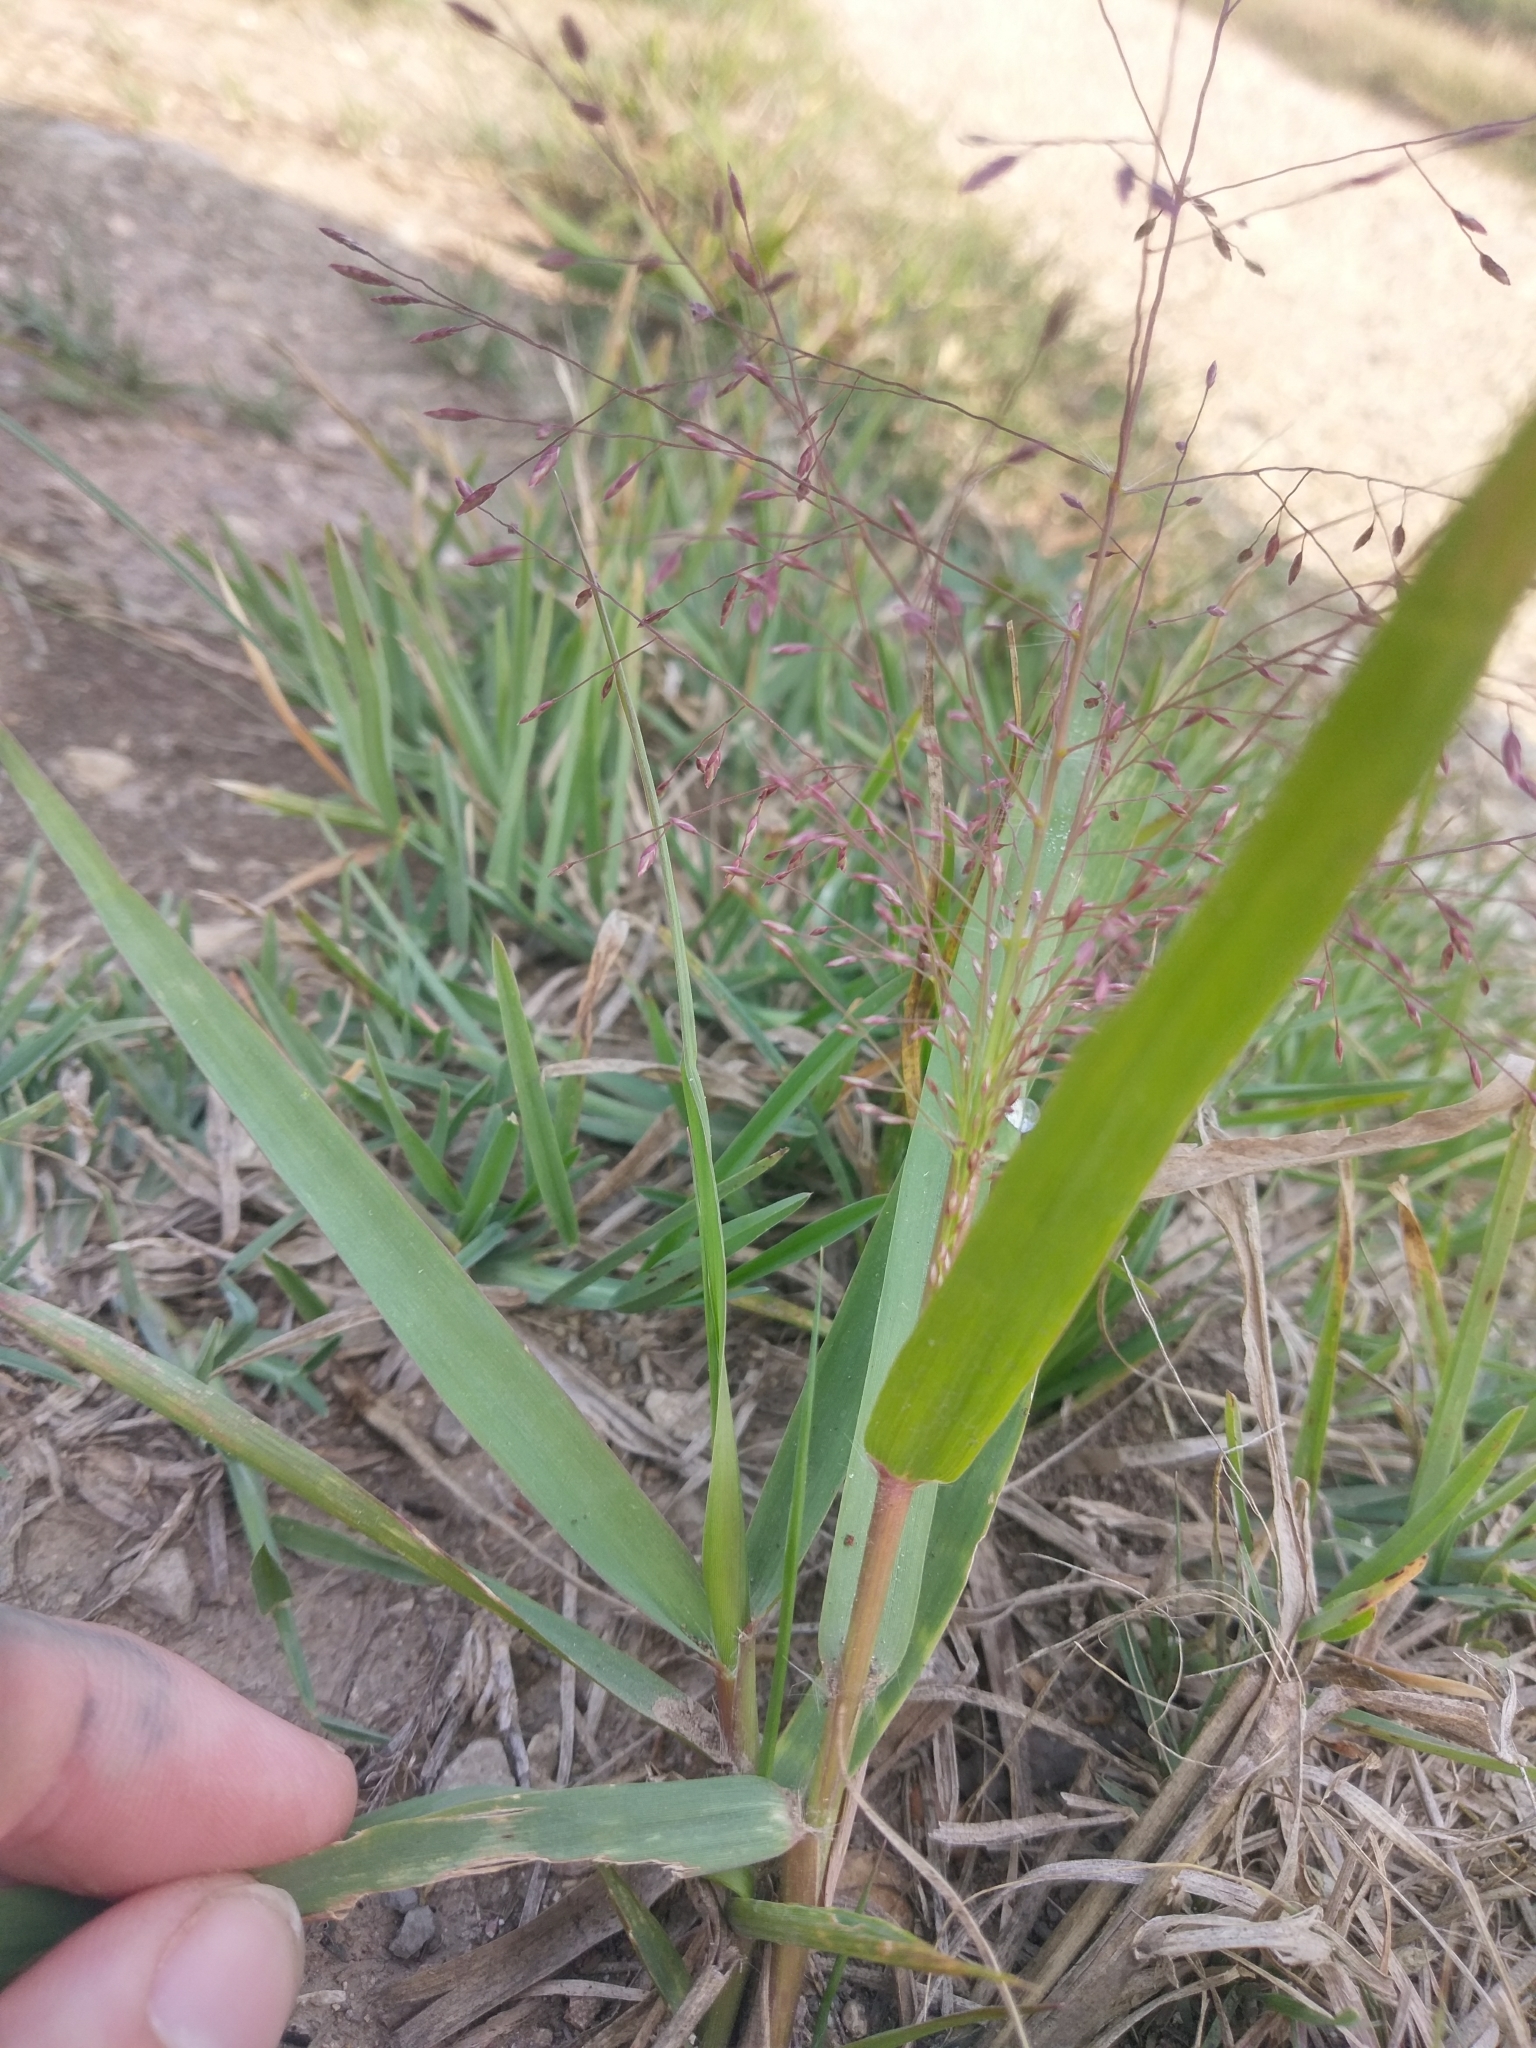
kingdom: Plantae
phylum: Tracheophyta
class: Liliopsida
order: Poales
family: Poaceae
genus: Eragrostis
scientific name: Eragrostis spectabilis
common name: Petticoat-climber
